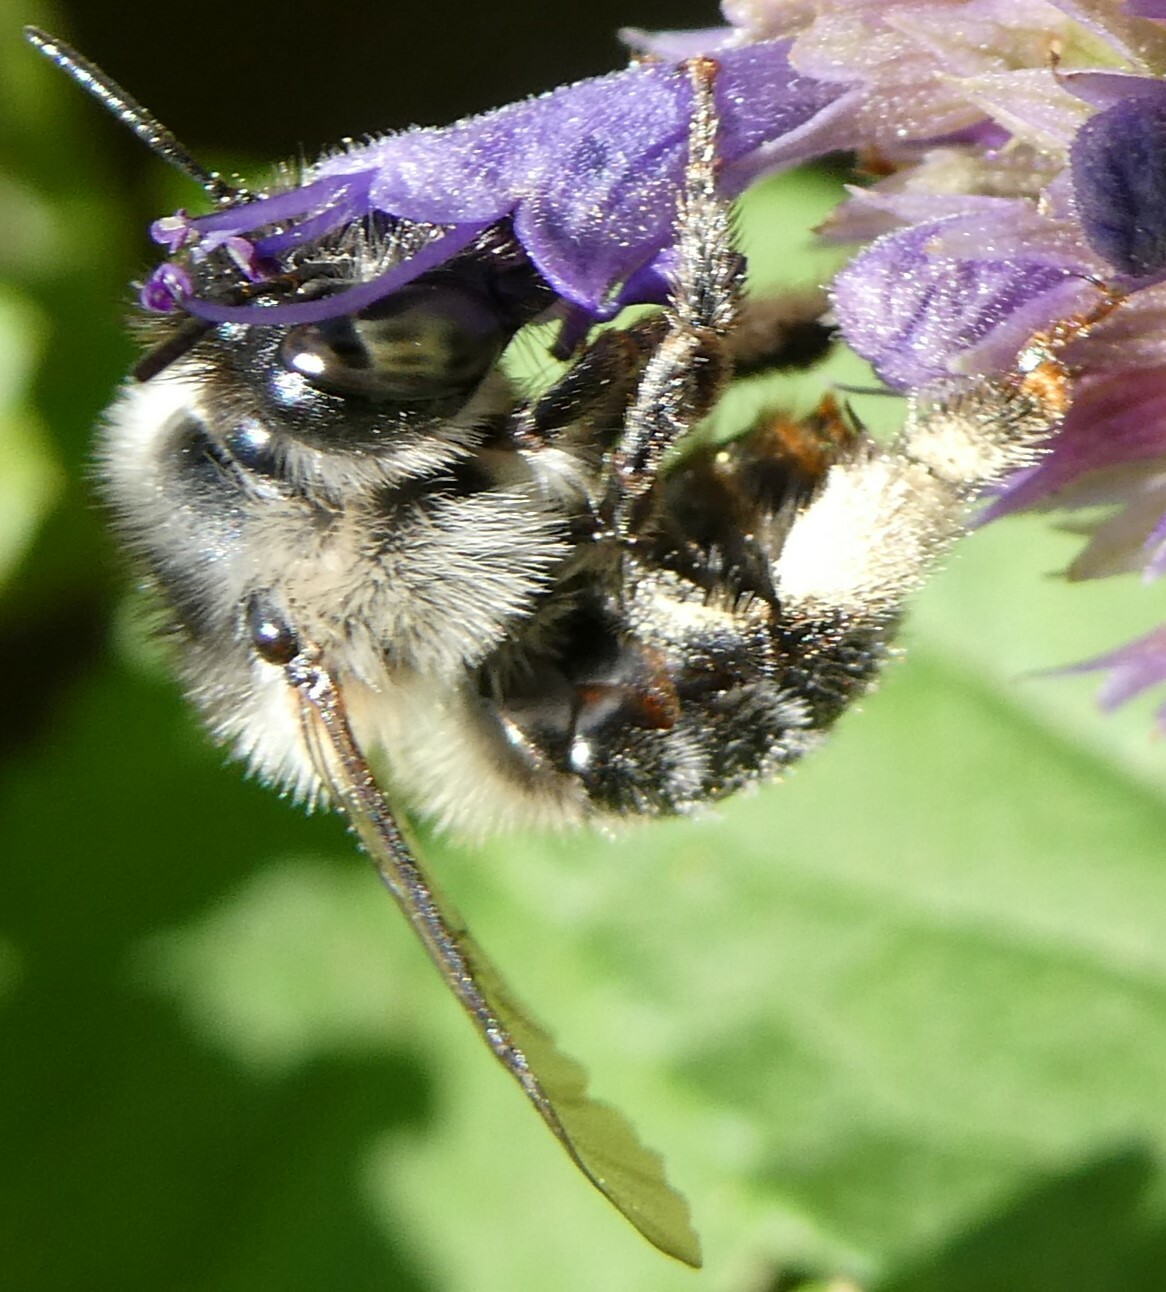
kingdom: Animalia
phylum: Arthropoda
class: Insecta
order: Hymenoptera
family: Apidae
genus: Anthophora
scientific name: Anthophora terminalis
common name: Orange-tipped wood-digger bee
